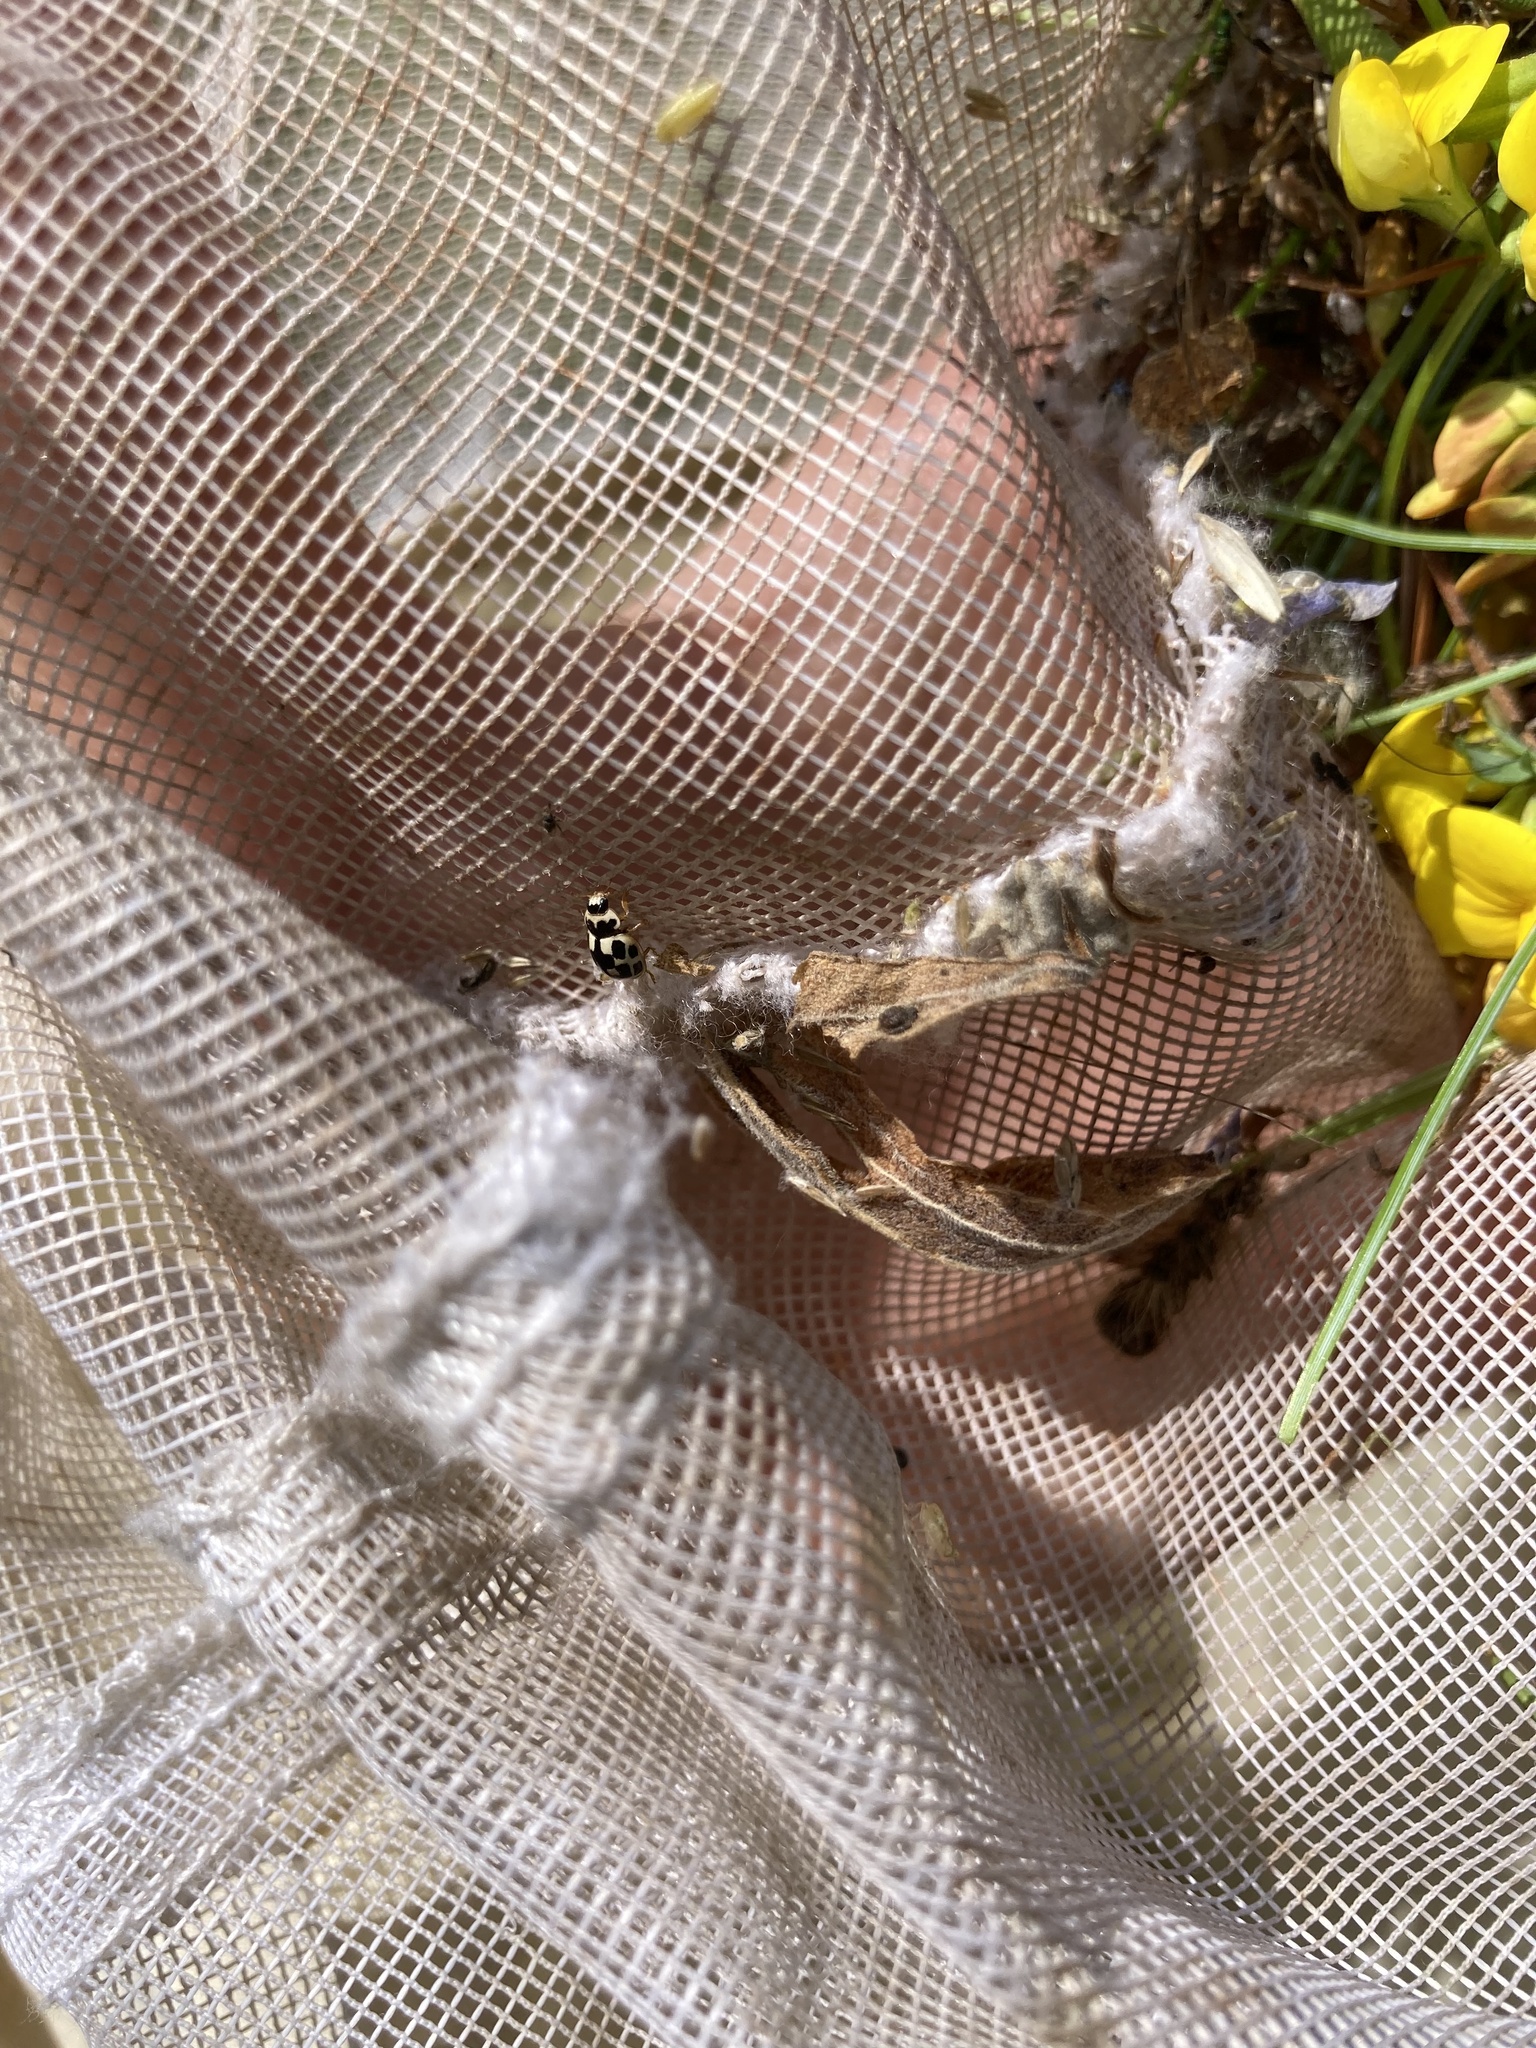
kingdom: Animalia
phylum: Arthropoda
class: Insecta
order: Coleoptera
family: Coccinellidae
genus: Propylaea
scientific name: Propylaea quatuordecimpunctata
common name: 14-spotted ladybird beetle
